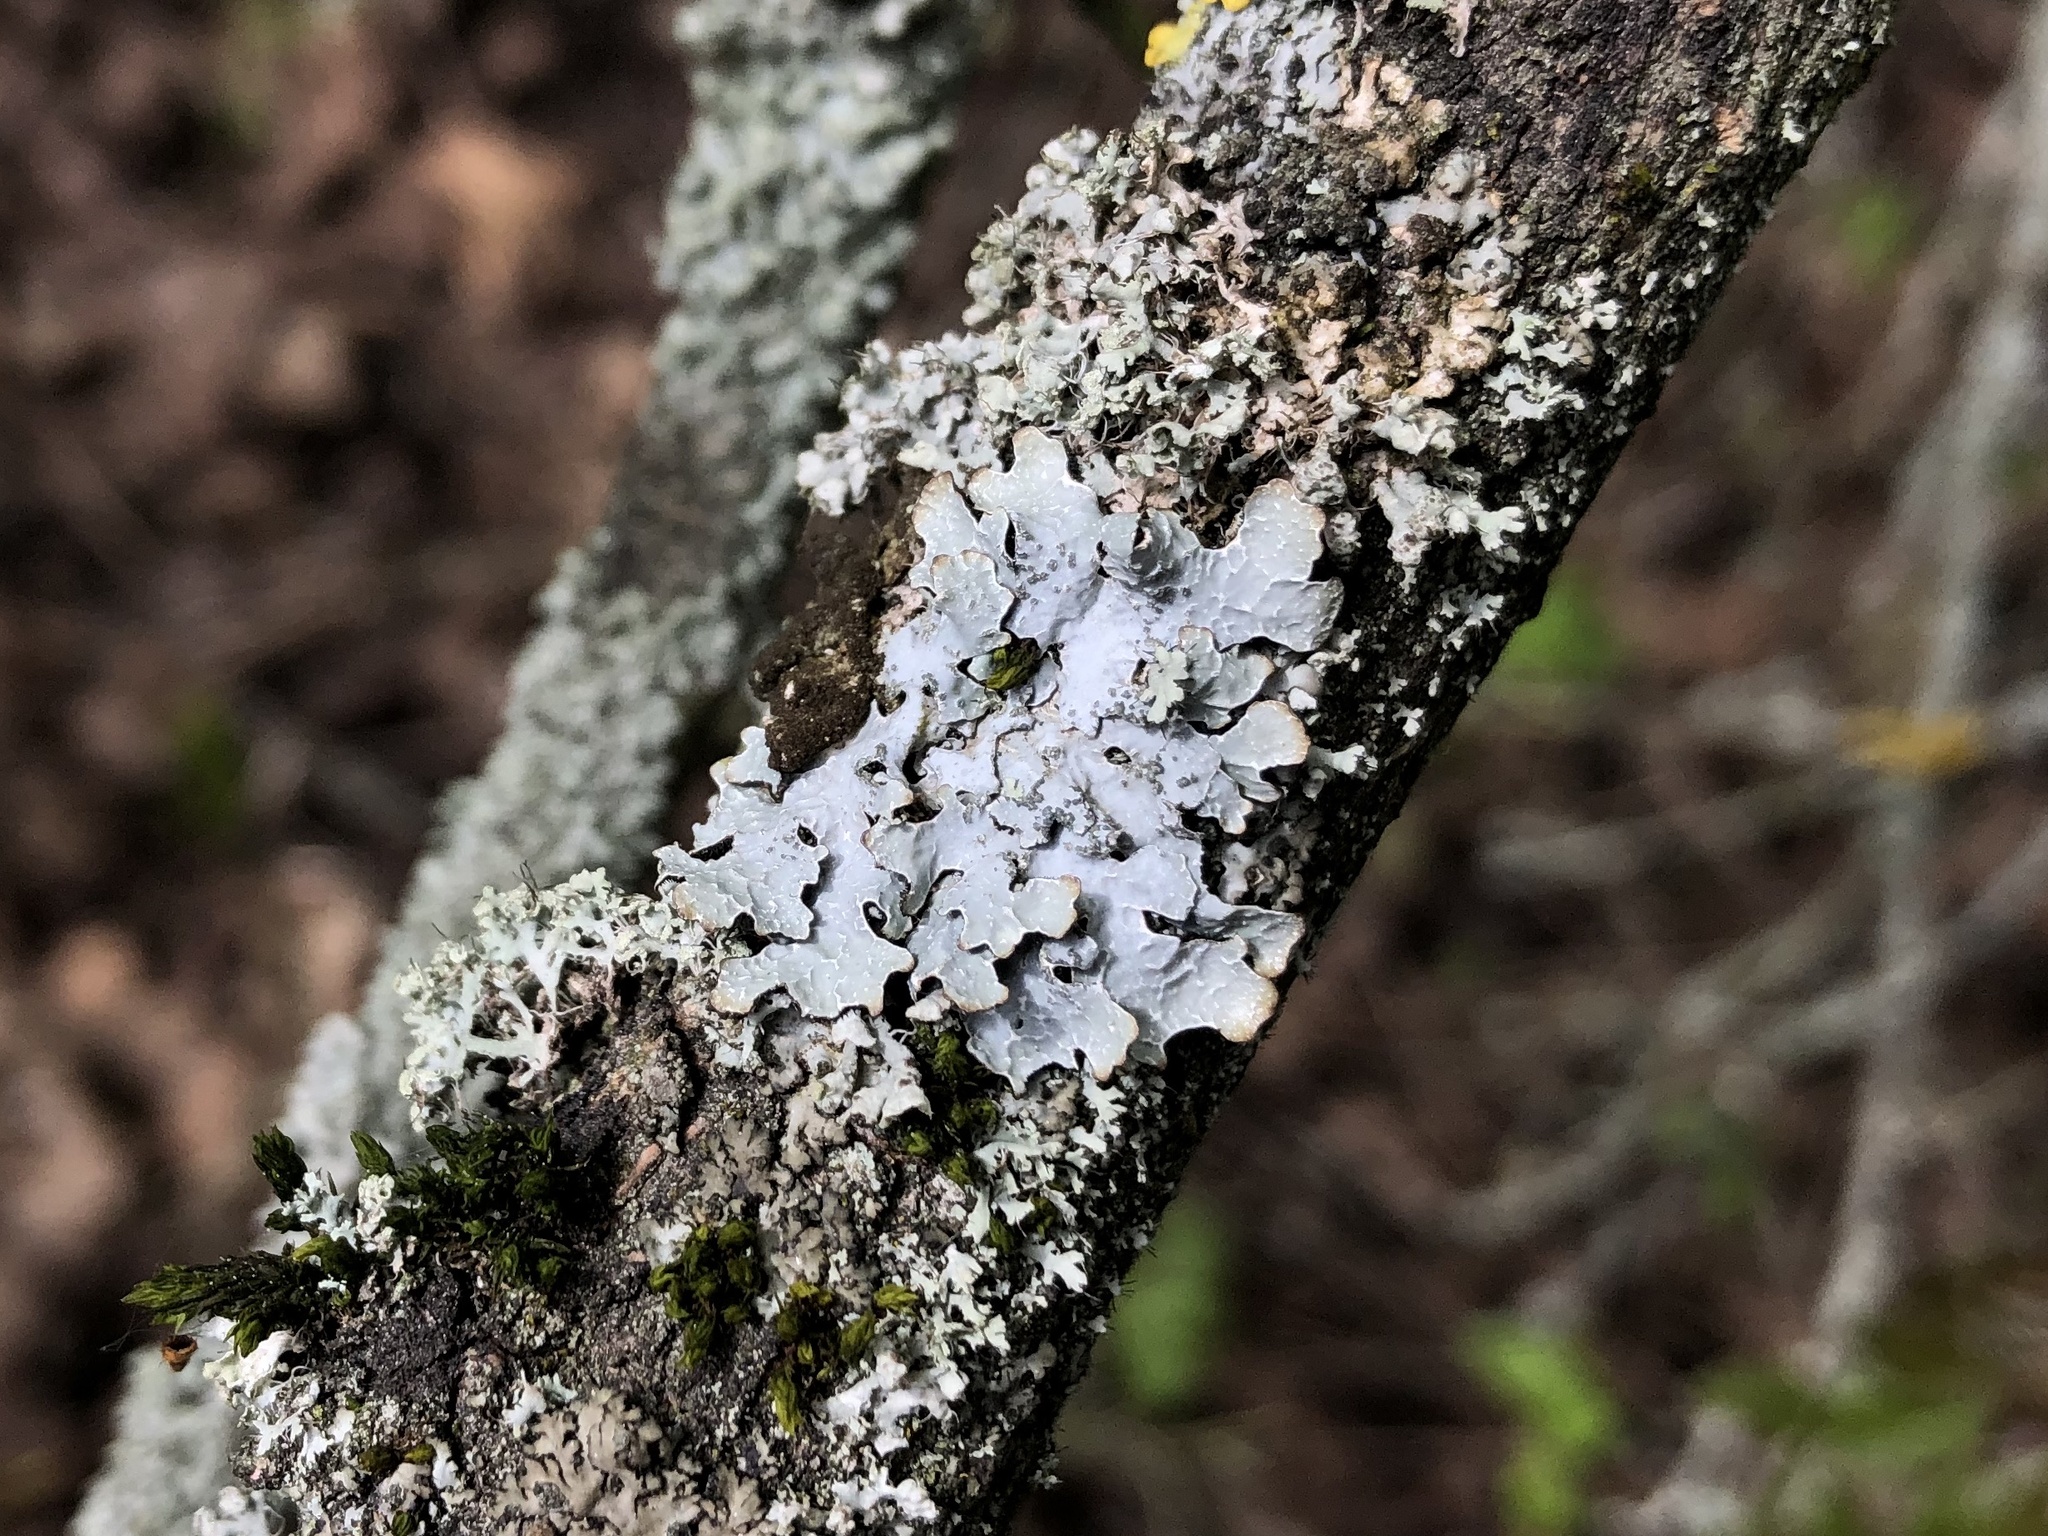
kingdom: Fungi
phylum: Ascomycota
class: Lecanoromycetes
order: Lecanorales
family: Parmeliaceae
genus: Parmelia
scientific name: Parmelia sulcata
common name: Netted shield lichen
